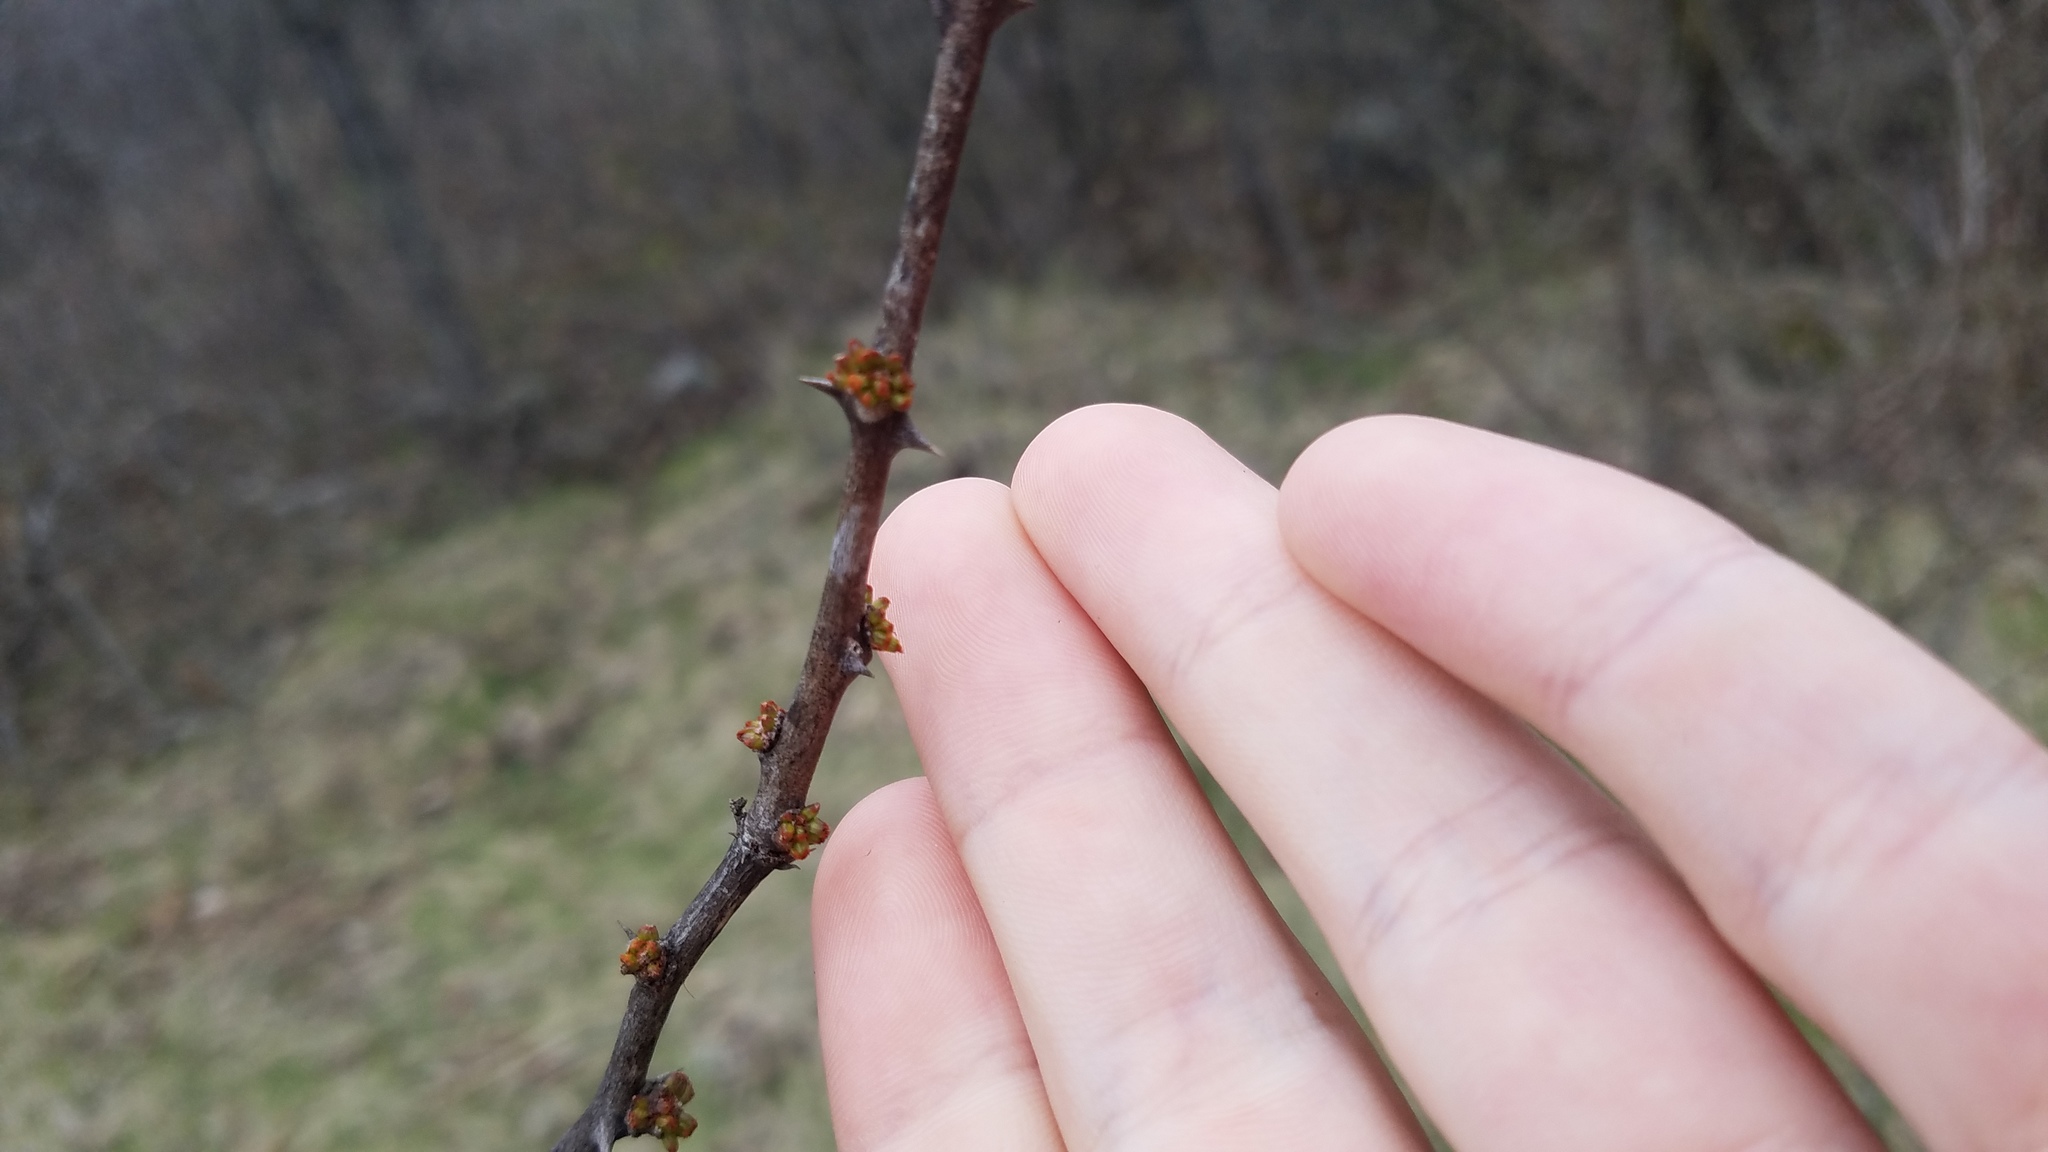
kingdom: Plantae
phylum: Tracheophyta
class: Magnoliopsida
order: Sapindales
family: Rutaceae
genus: Zanthoxylum
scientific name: Zanthoxylum americanum
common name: Northern prickly-ash
